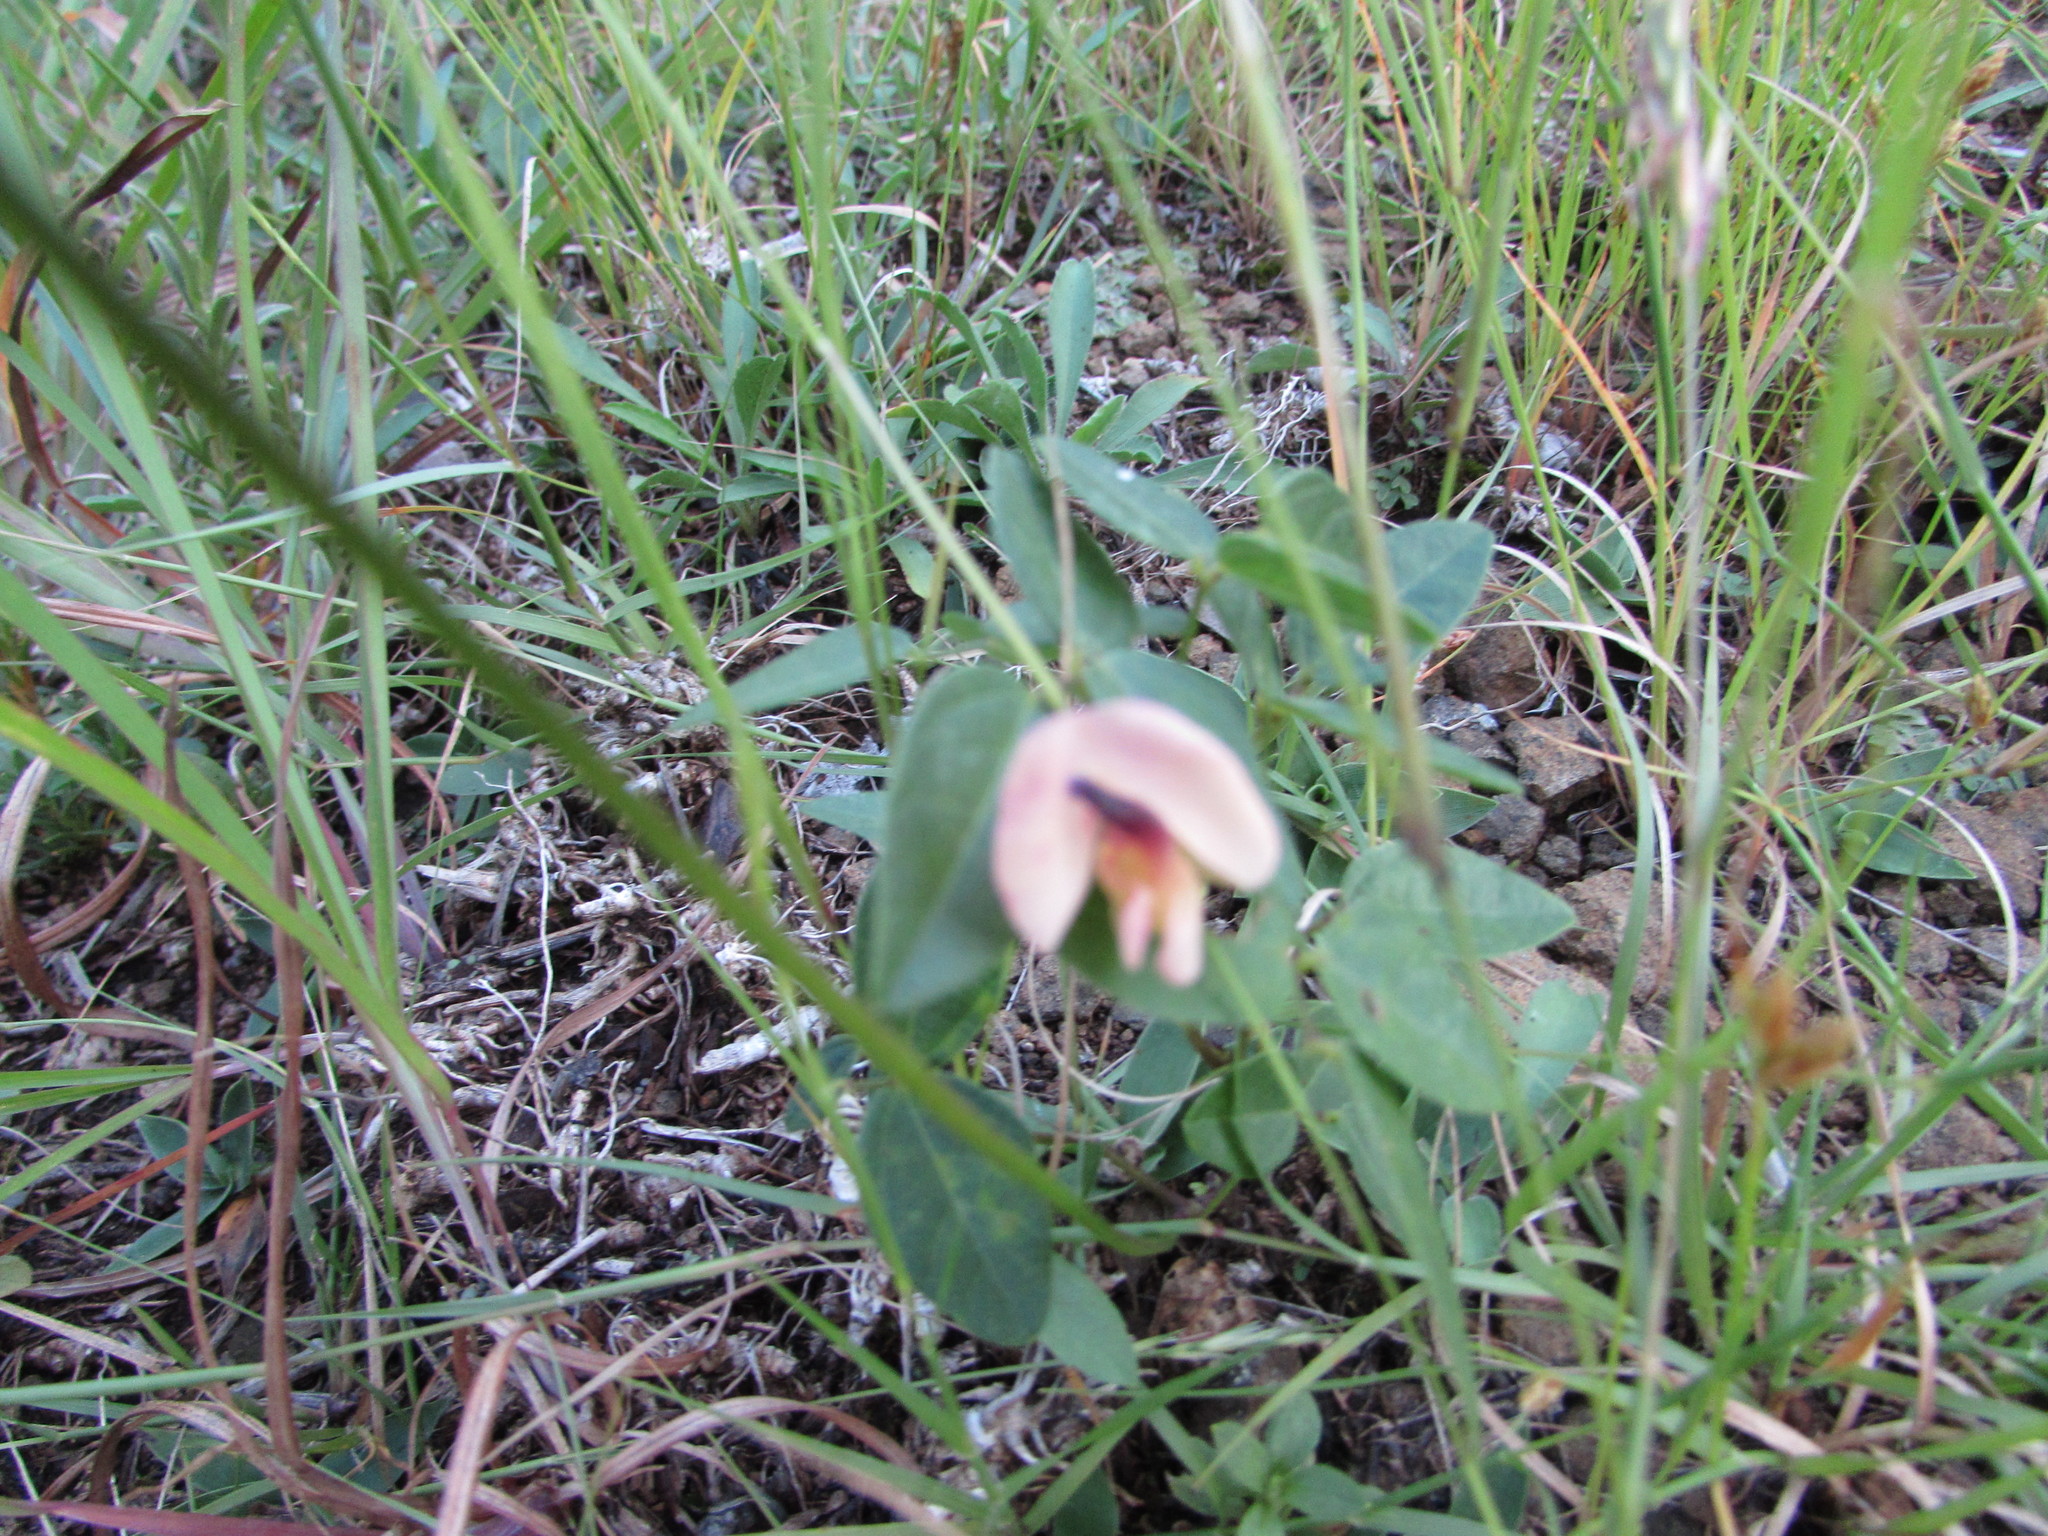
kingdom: Plantae
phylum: Tracheophyta
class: Magnoliopsida
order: Fabales
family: Fabaceae
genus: Strophostyles
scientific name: Strophostyles umbellata
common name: Perennial wild bean
